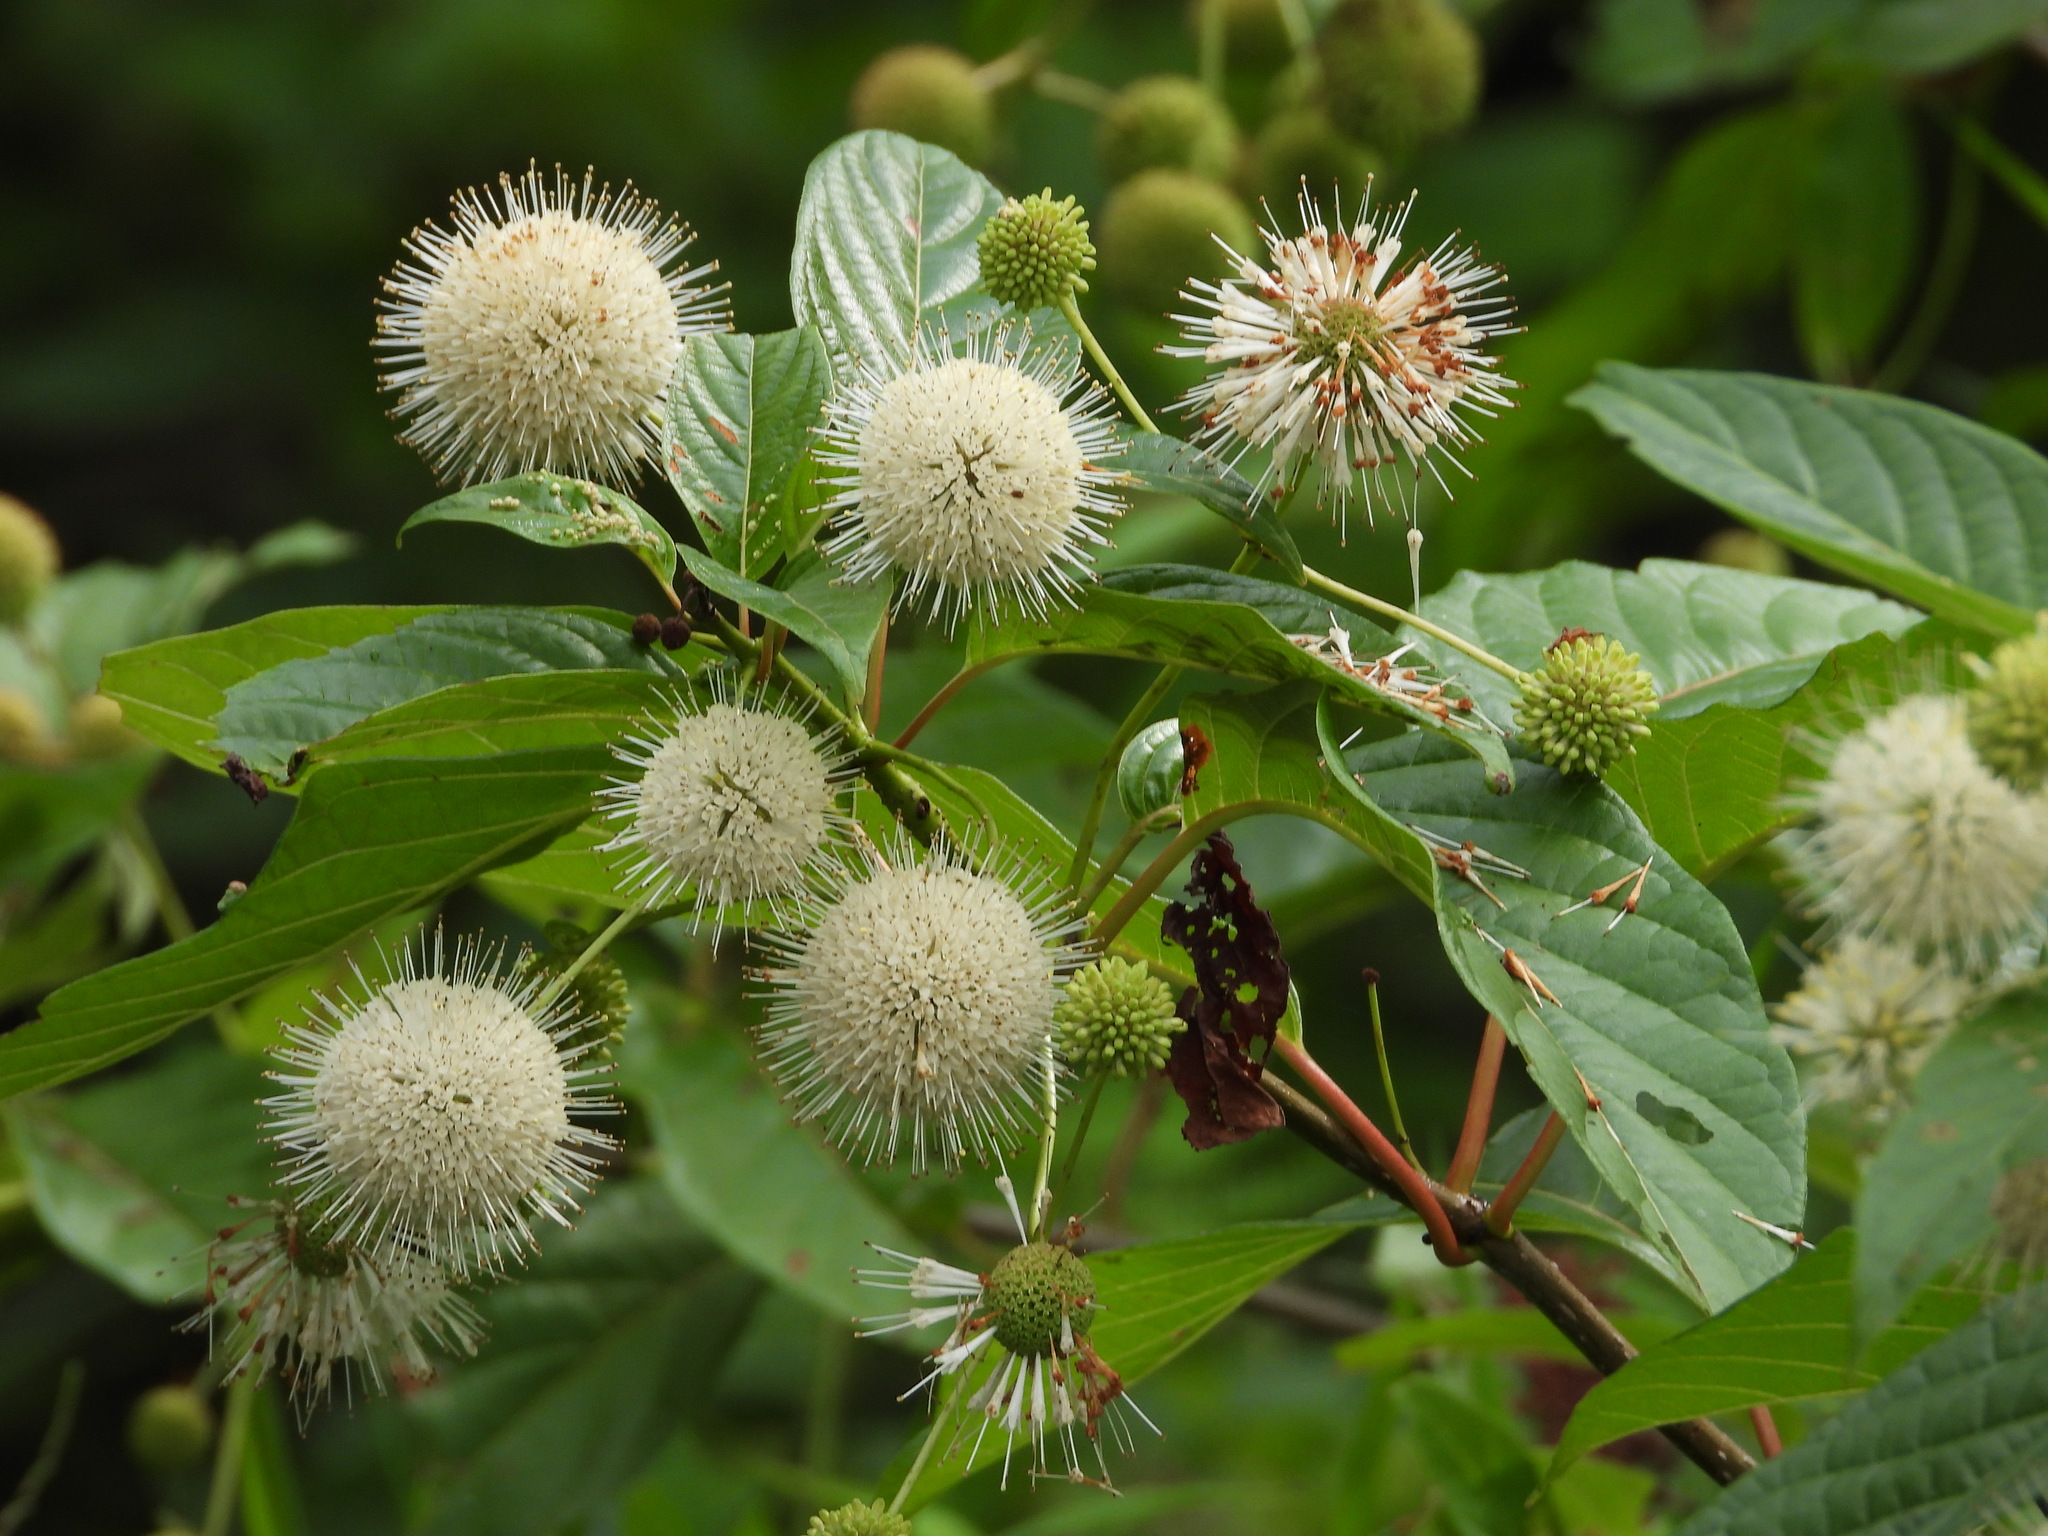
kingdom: Plantae
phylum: Tracheophyta
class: Magnoliopsida
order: Gentianales
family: Rubiaceae
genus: Cephalanthus
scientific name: Cephalanthus occidentalis
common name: Button-willow
